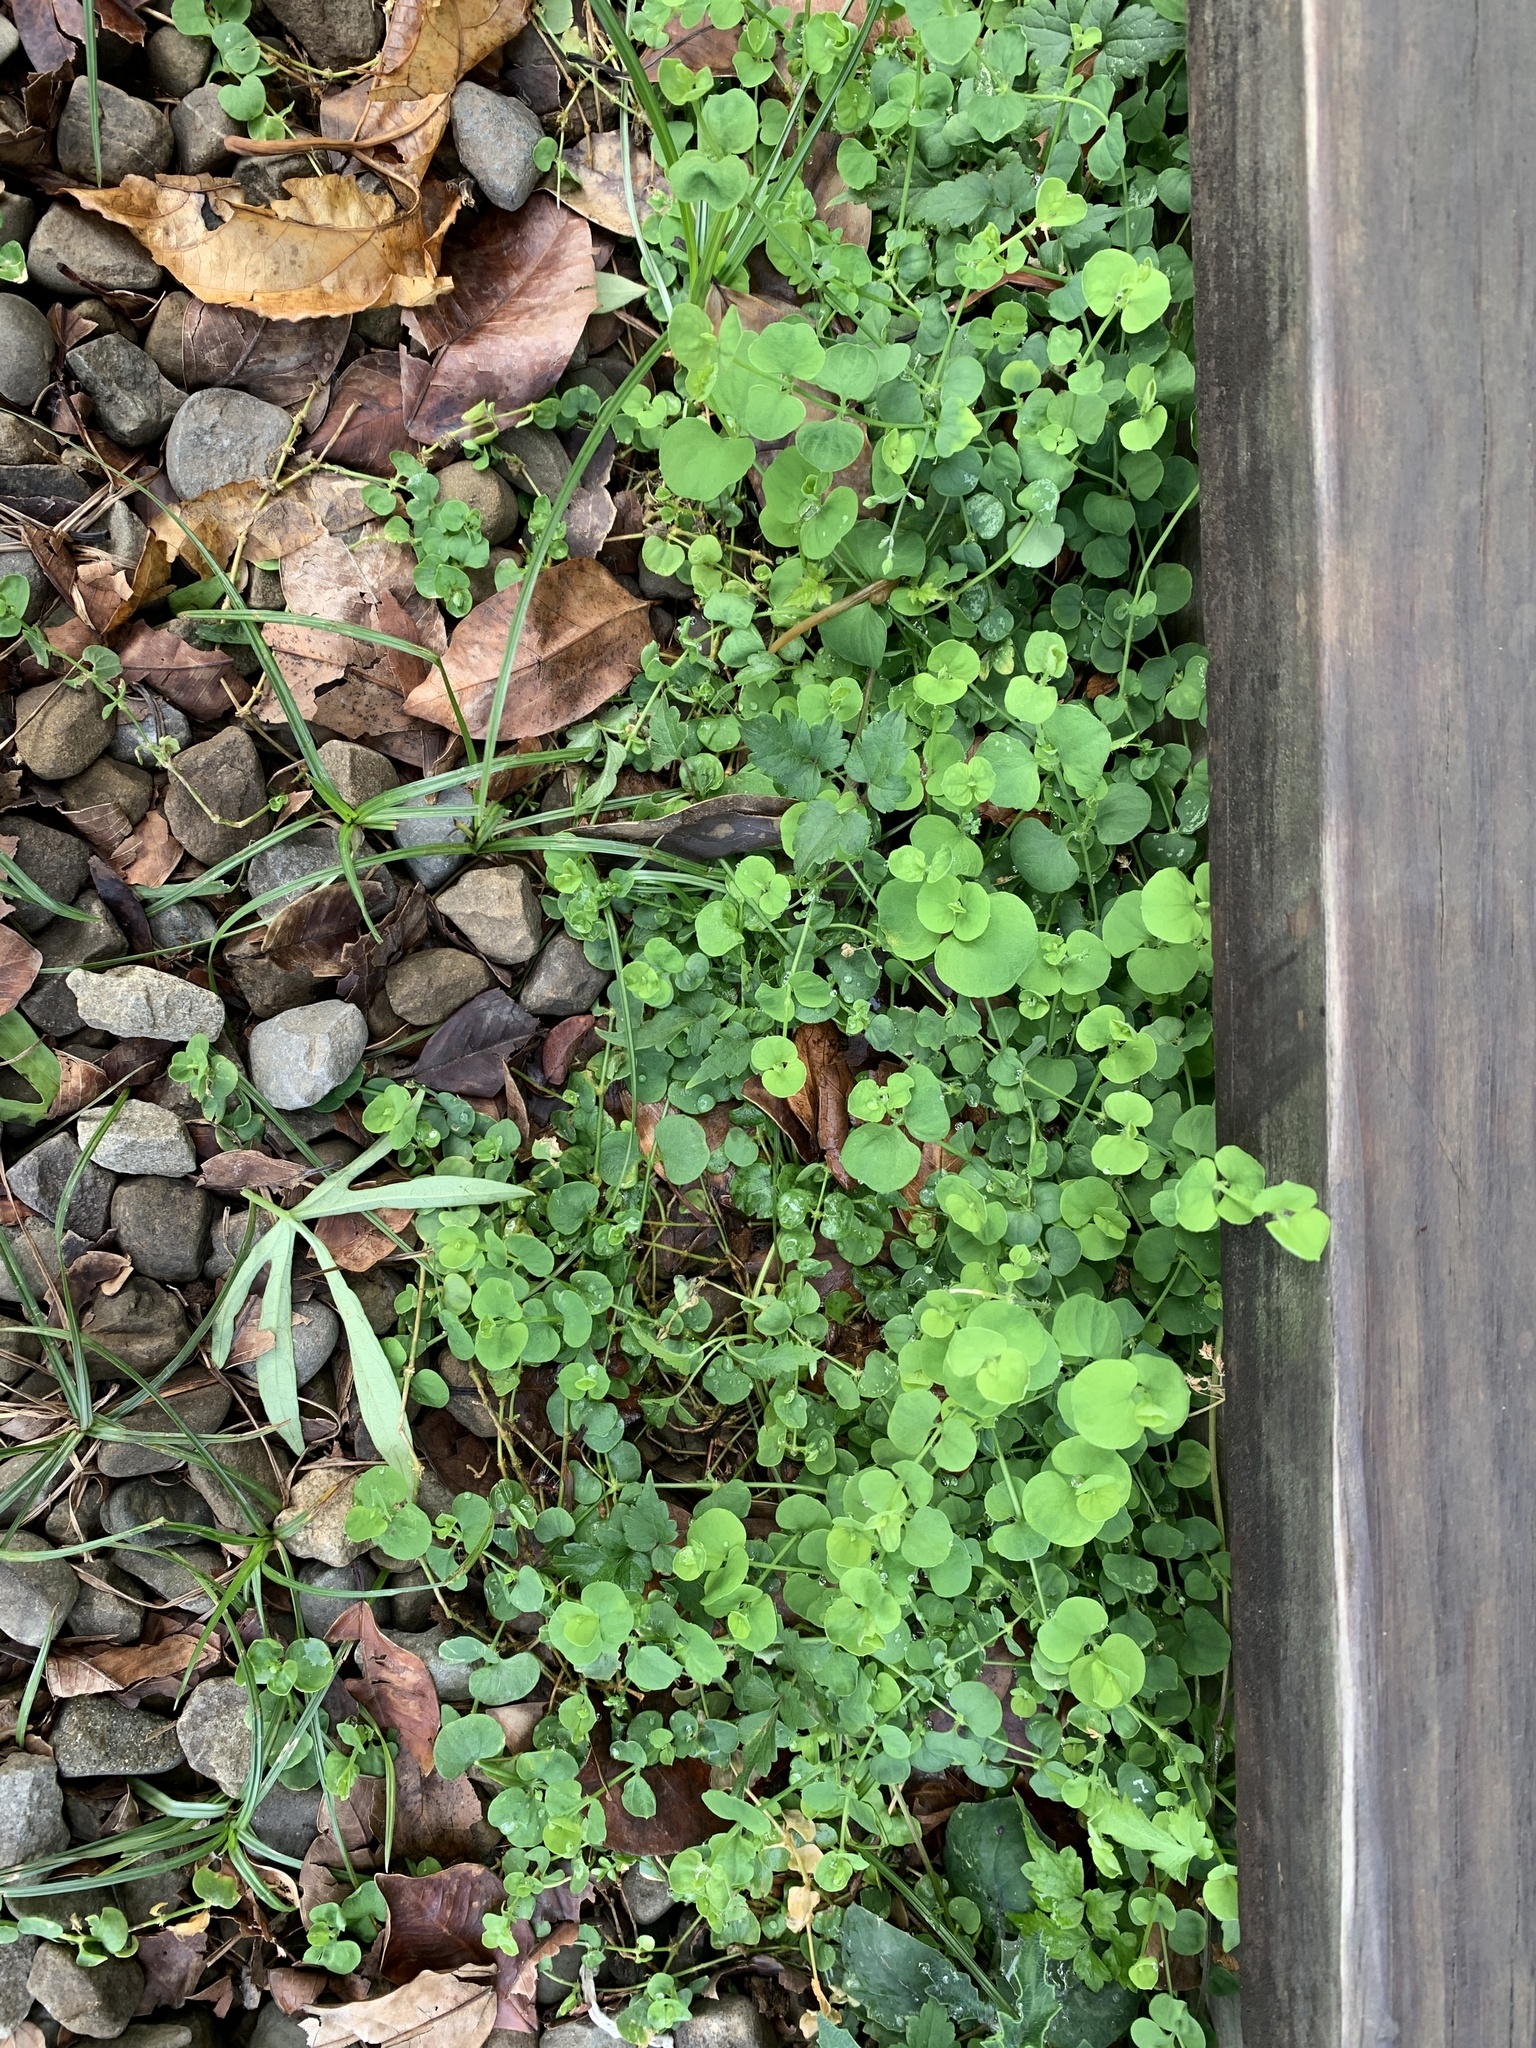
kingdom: Plantae
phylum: Tracheophyta
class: Magnoliopsida
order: Caryophyllales
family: Caryophyllaceae
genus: Drymaria
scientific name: Drymaria cordata
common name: Whitesnow
